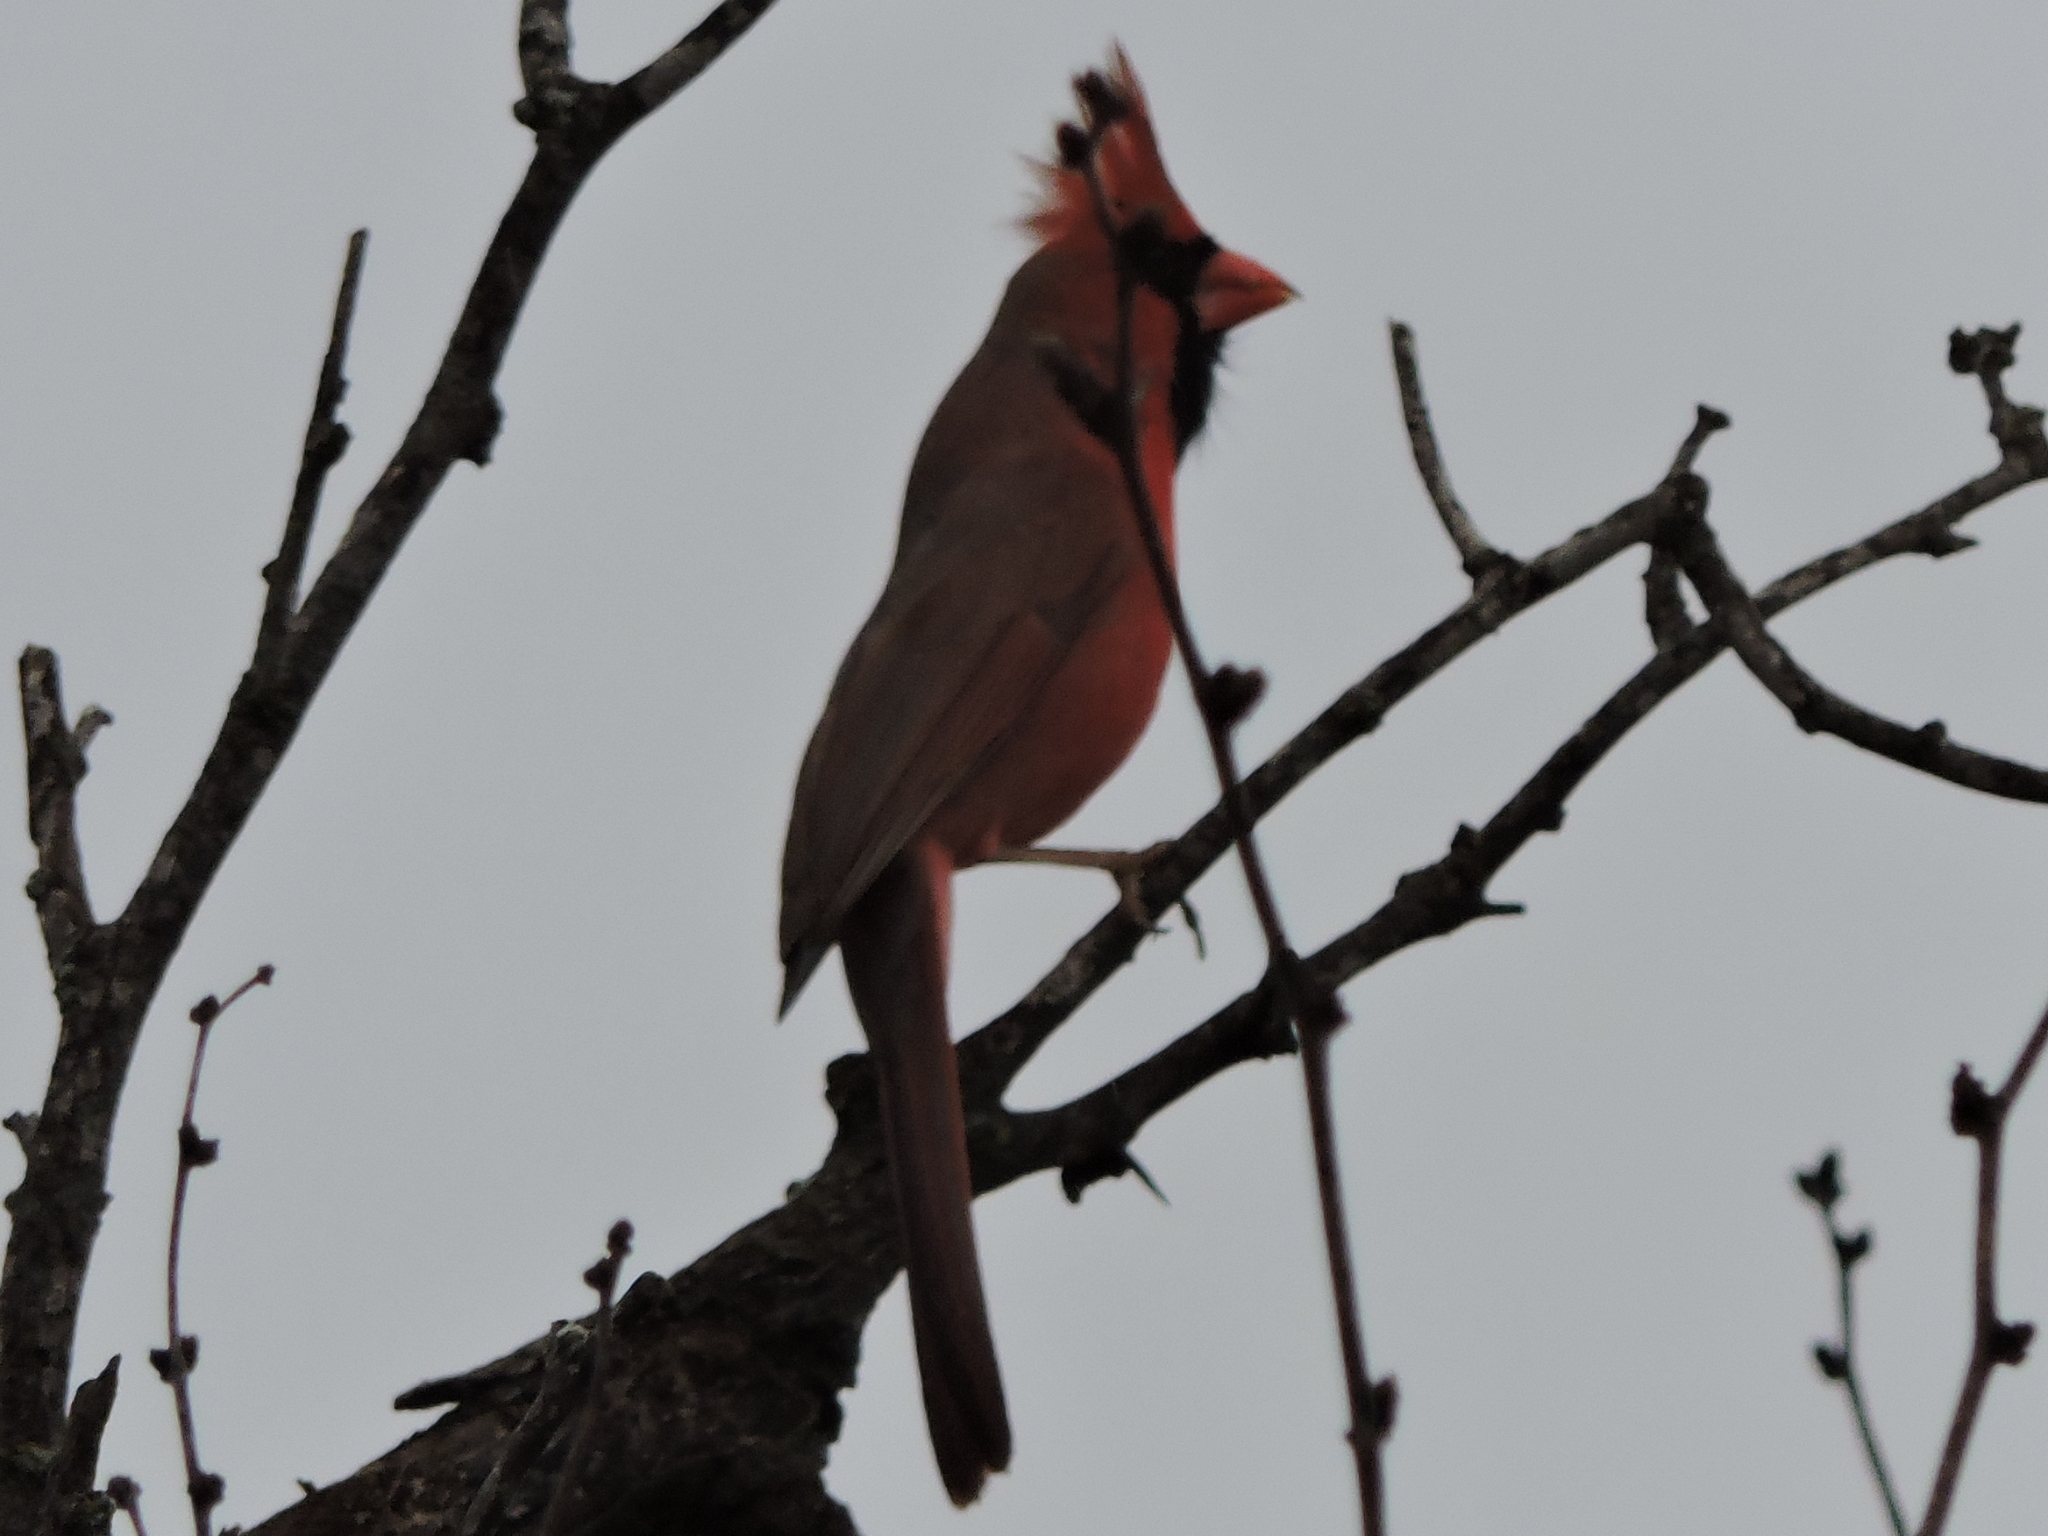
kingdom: Animalia
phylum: Chordata
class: Aves
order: Passeriformes
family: Cardinalidae
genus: Cardinalis
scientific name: Cardinalis cardinalis
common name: Northern cardinal
